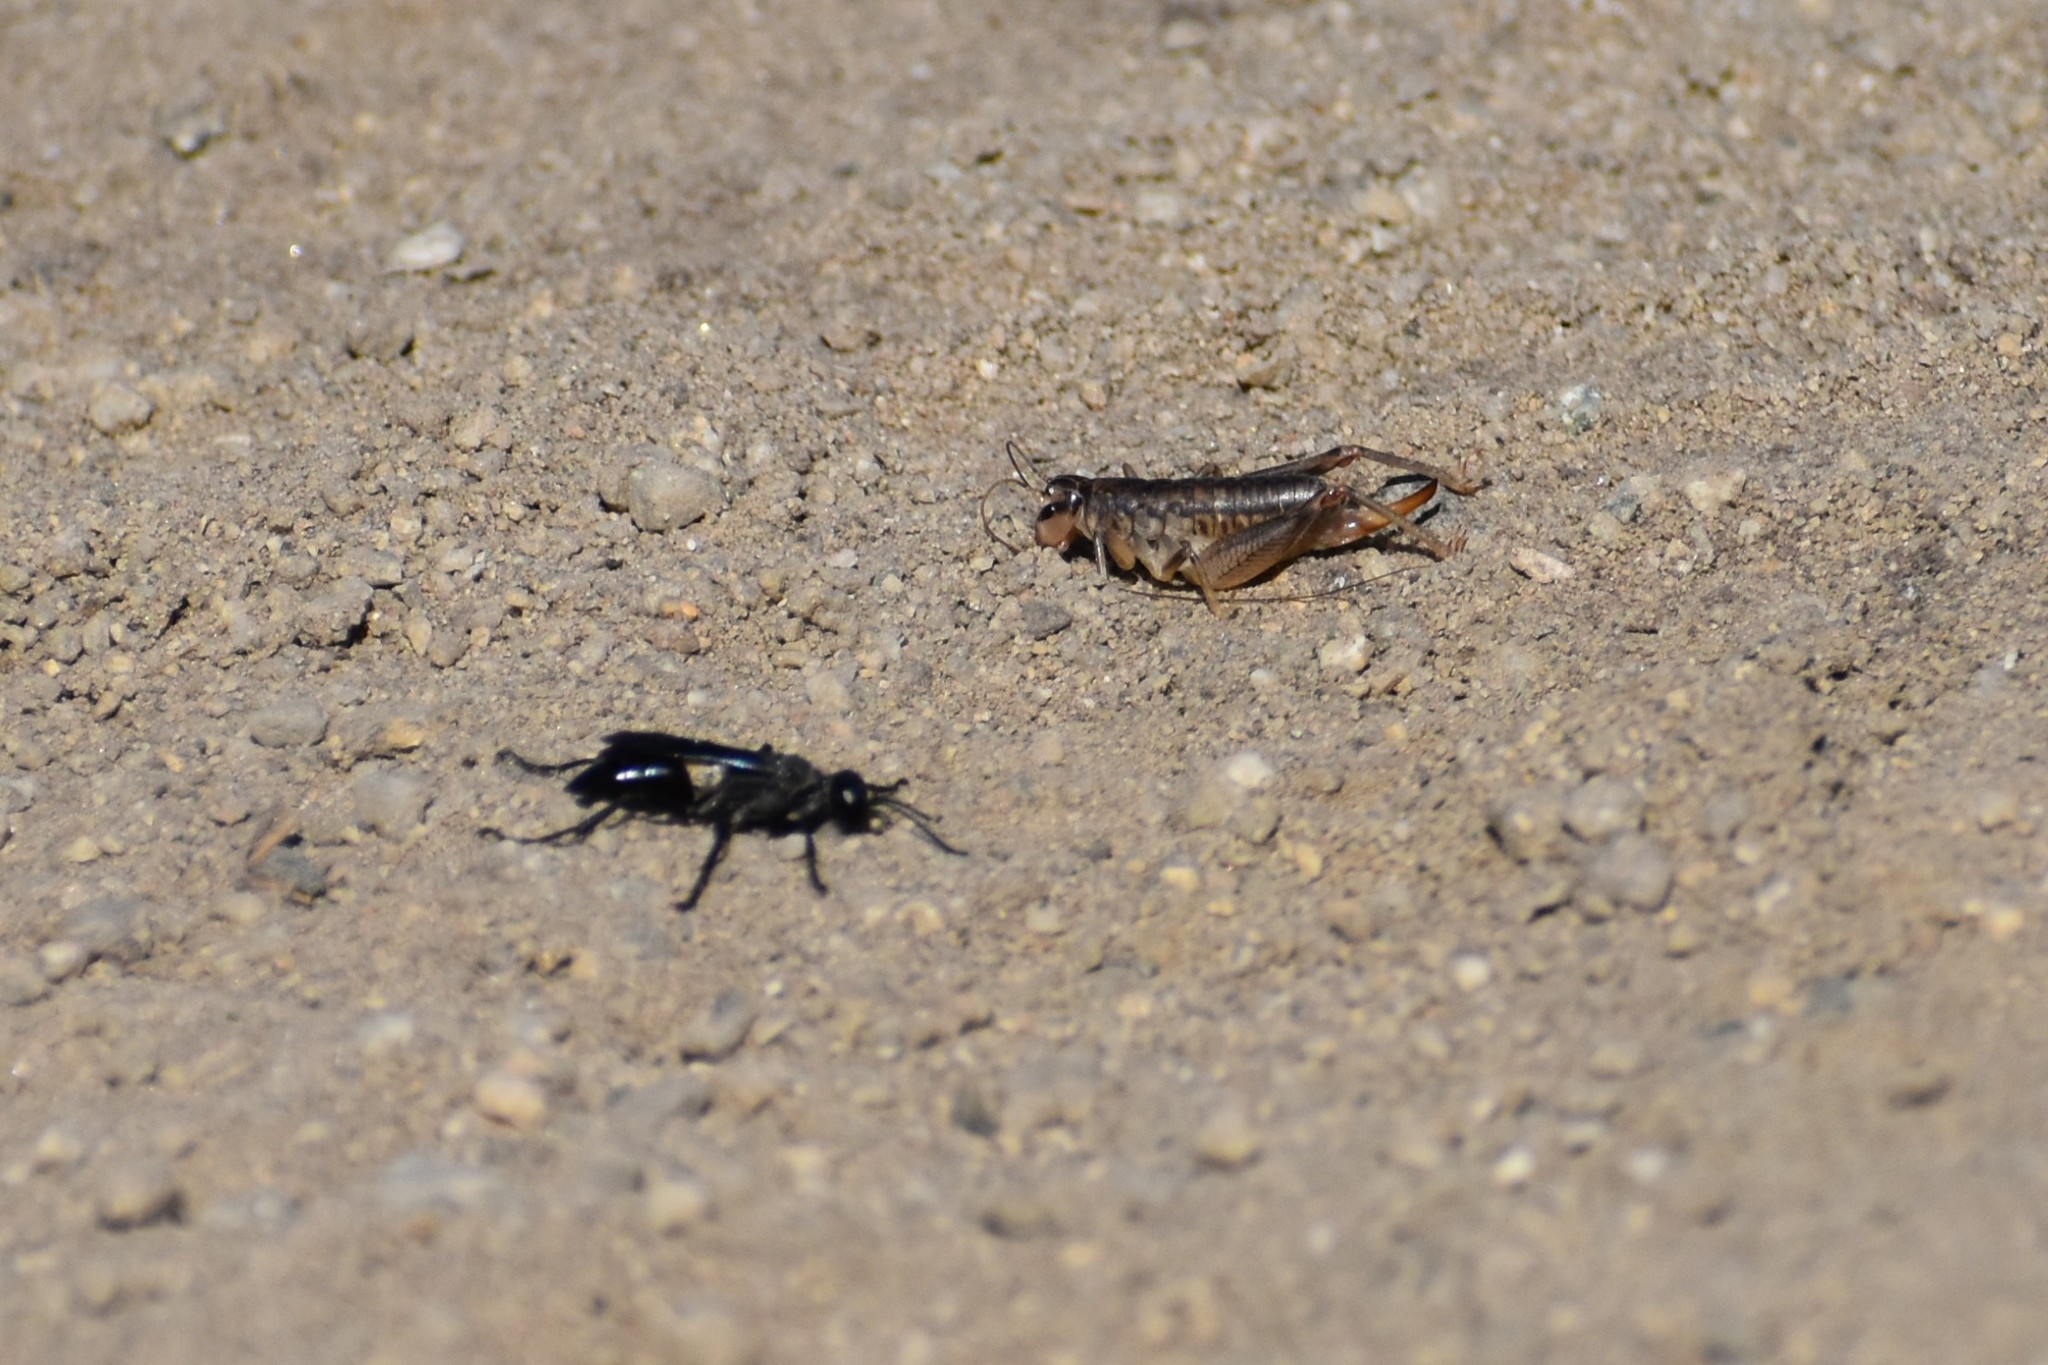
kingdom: Animalia
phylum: Arthropoda
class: Insecta
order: Orthoptera
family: Anostostomatidae
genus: Cnemotettix
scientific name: Cnemotettix bifasciatus
